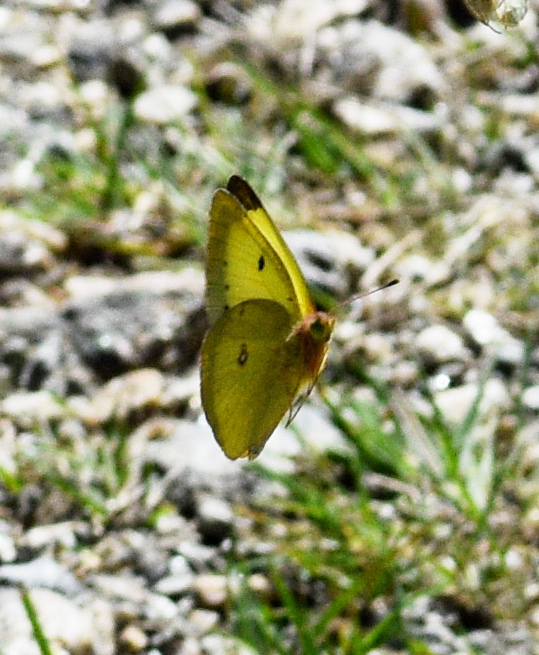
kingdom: Animalia
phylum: Arthropoda
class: Insecta
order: Lepidoptera
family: Pieridae
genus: Colias
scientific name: Colias philodice
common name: Clouded sulphur
